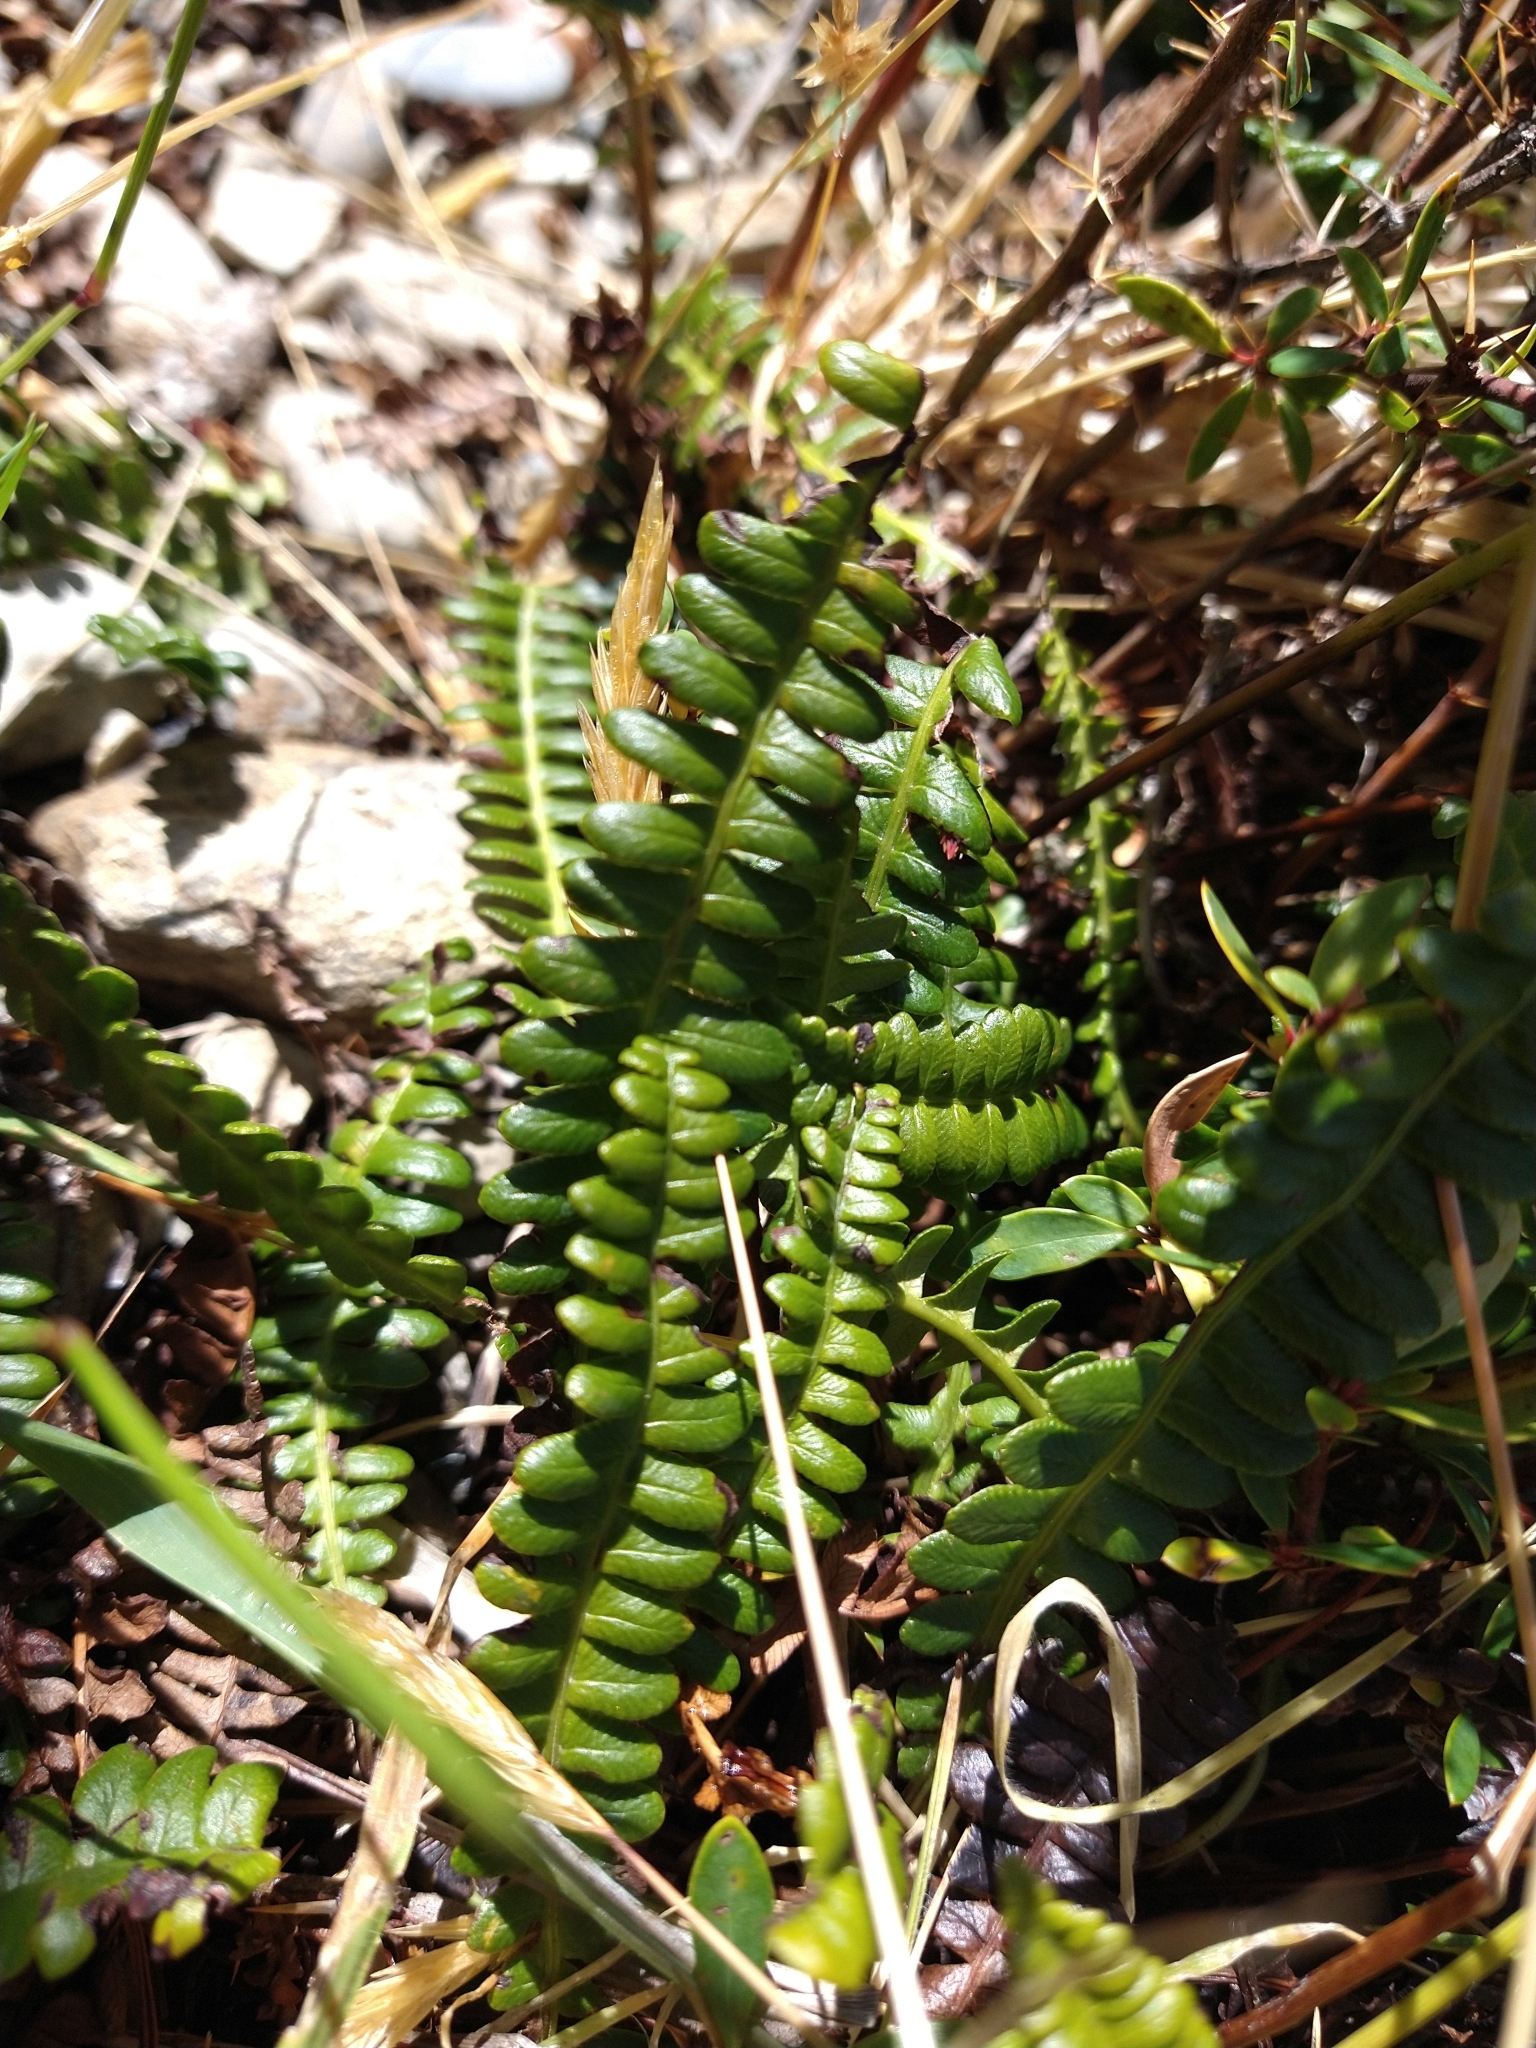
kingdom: Plantae
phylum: Tracheophyta
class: Polypodiopsida
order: Polypodiales
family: Blechnaceae
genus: Austroblechnum
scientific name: Austroblechnum penna-marina
